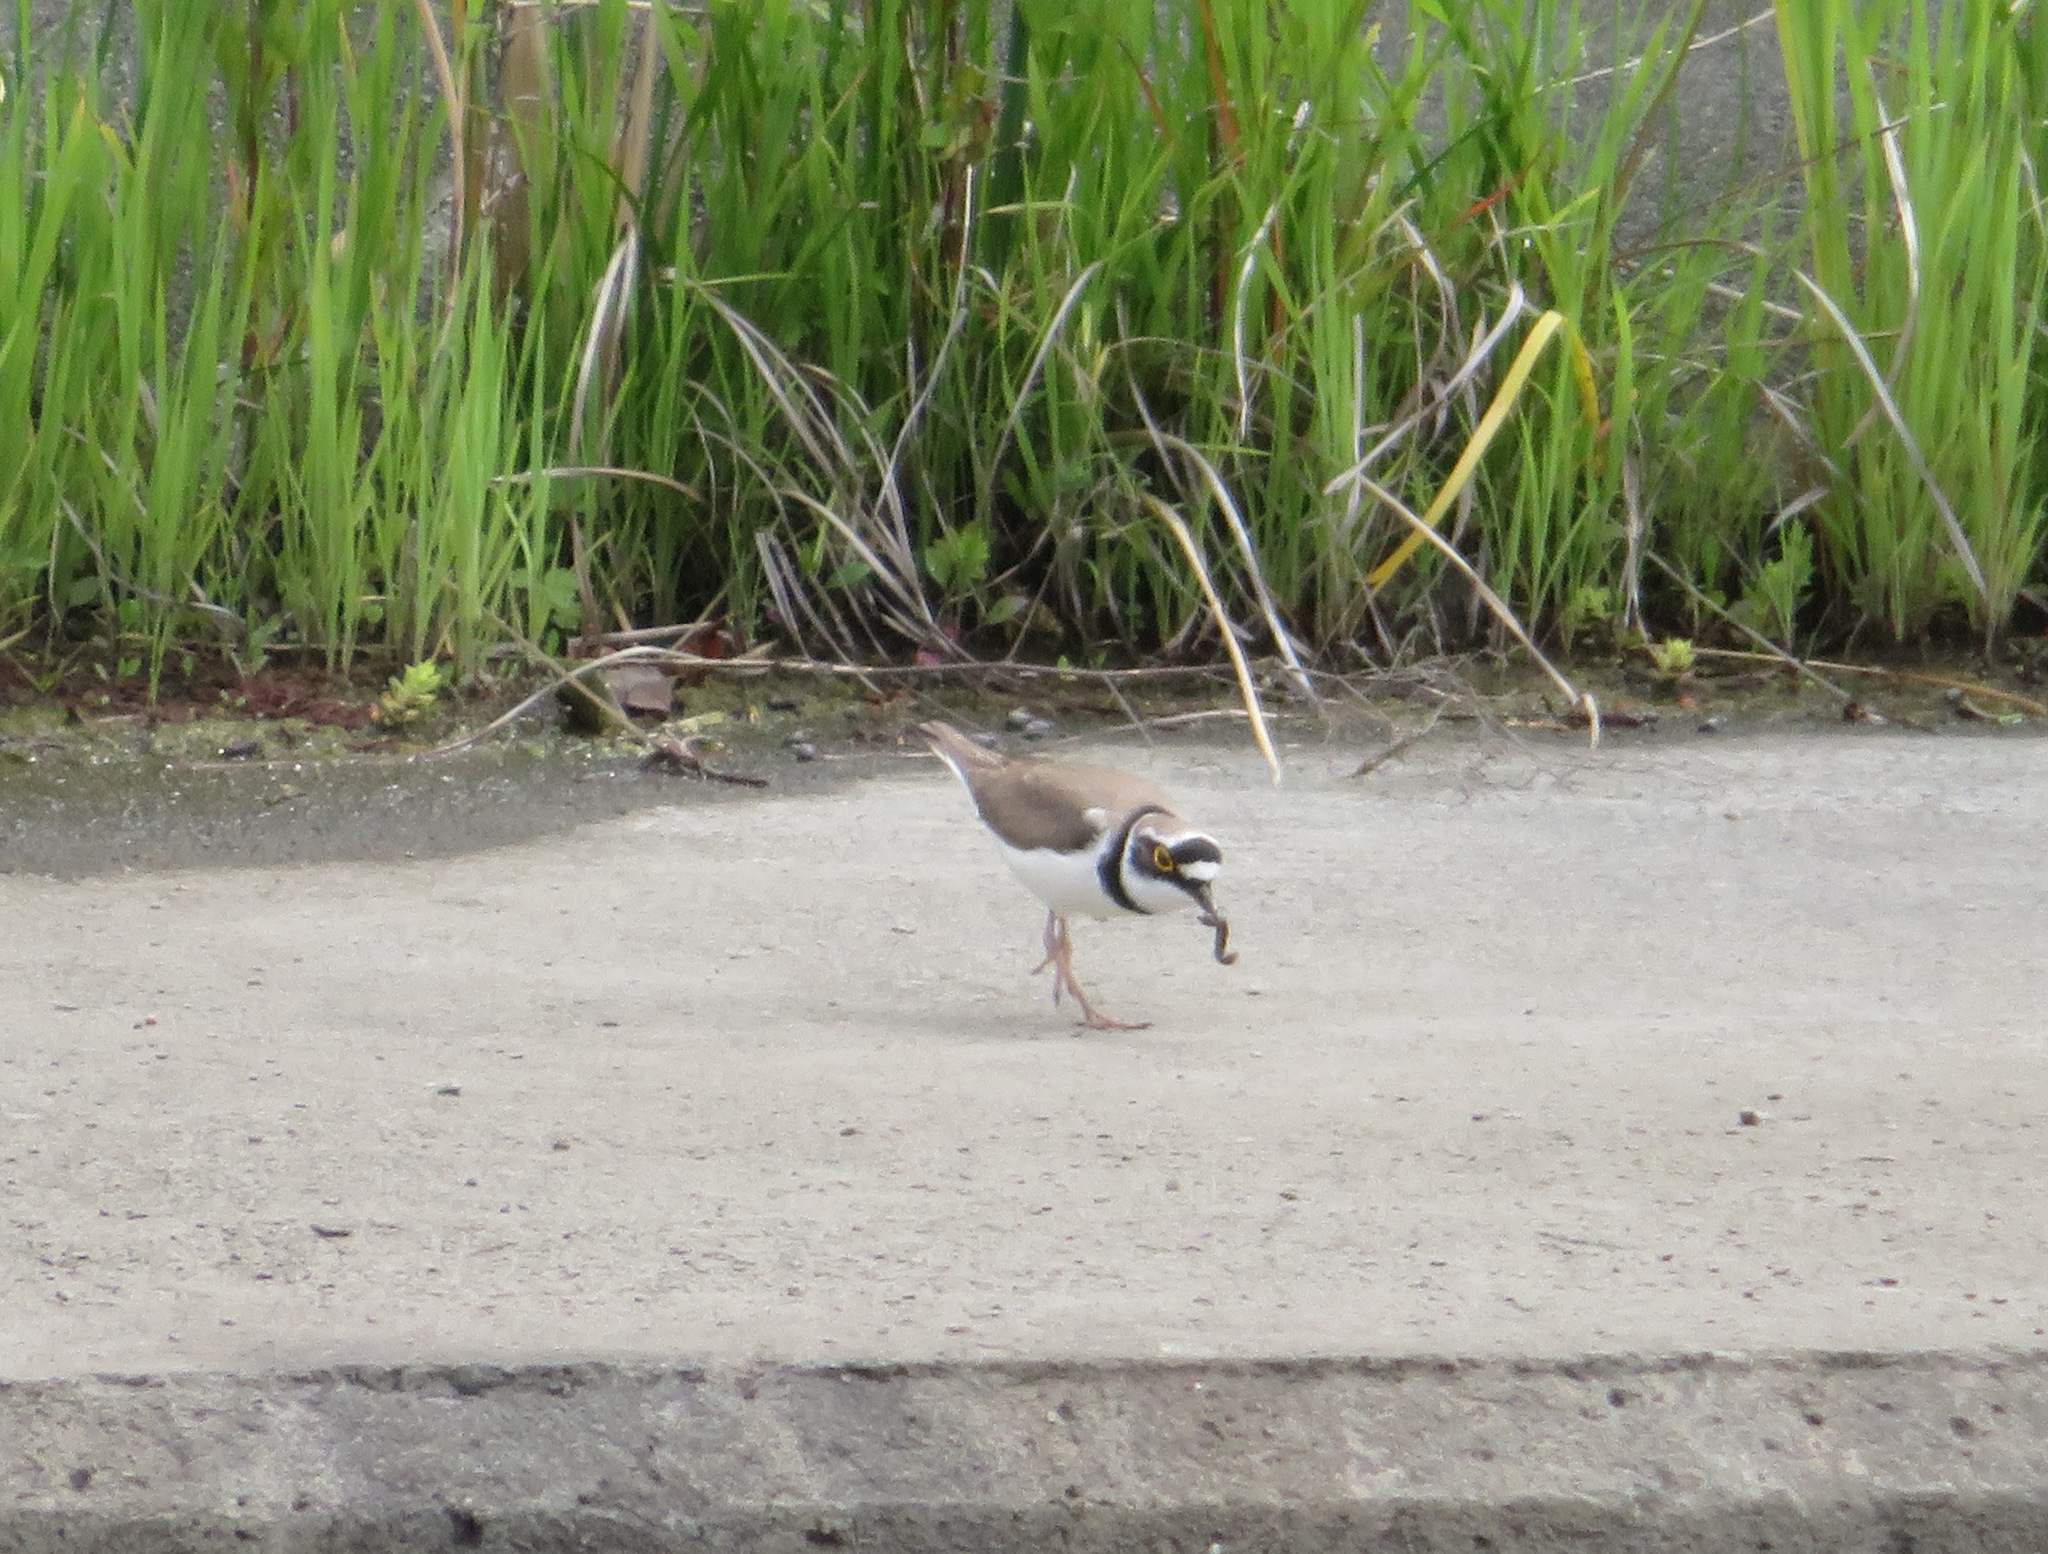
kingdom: Animalia
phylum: Chordata
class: Aves
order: Charadriiformes
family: Charadriidae
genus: Charadrius
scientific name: Charadrius dubius
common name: Little ringed plover
